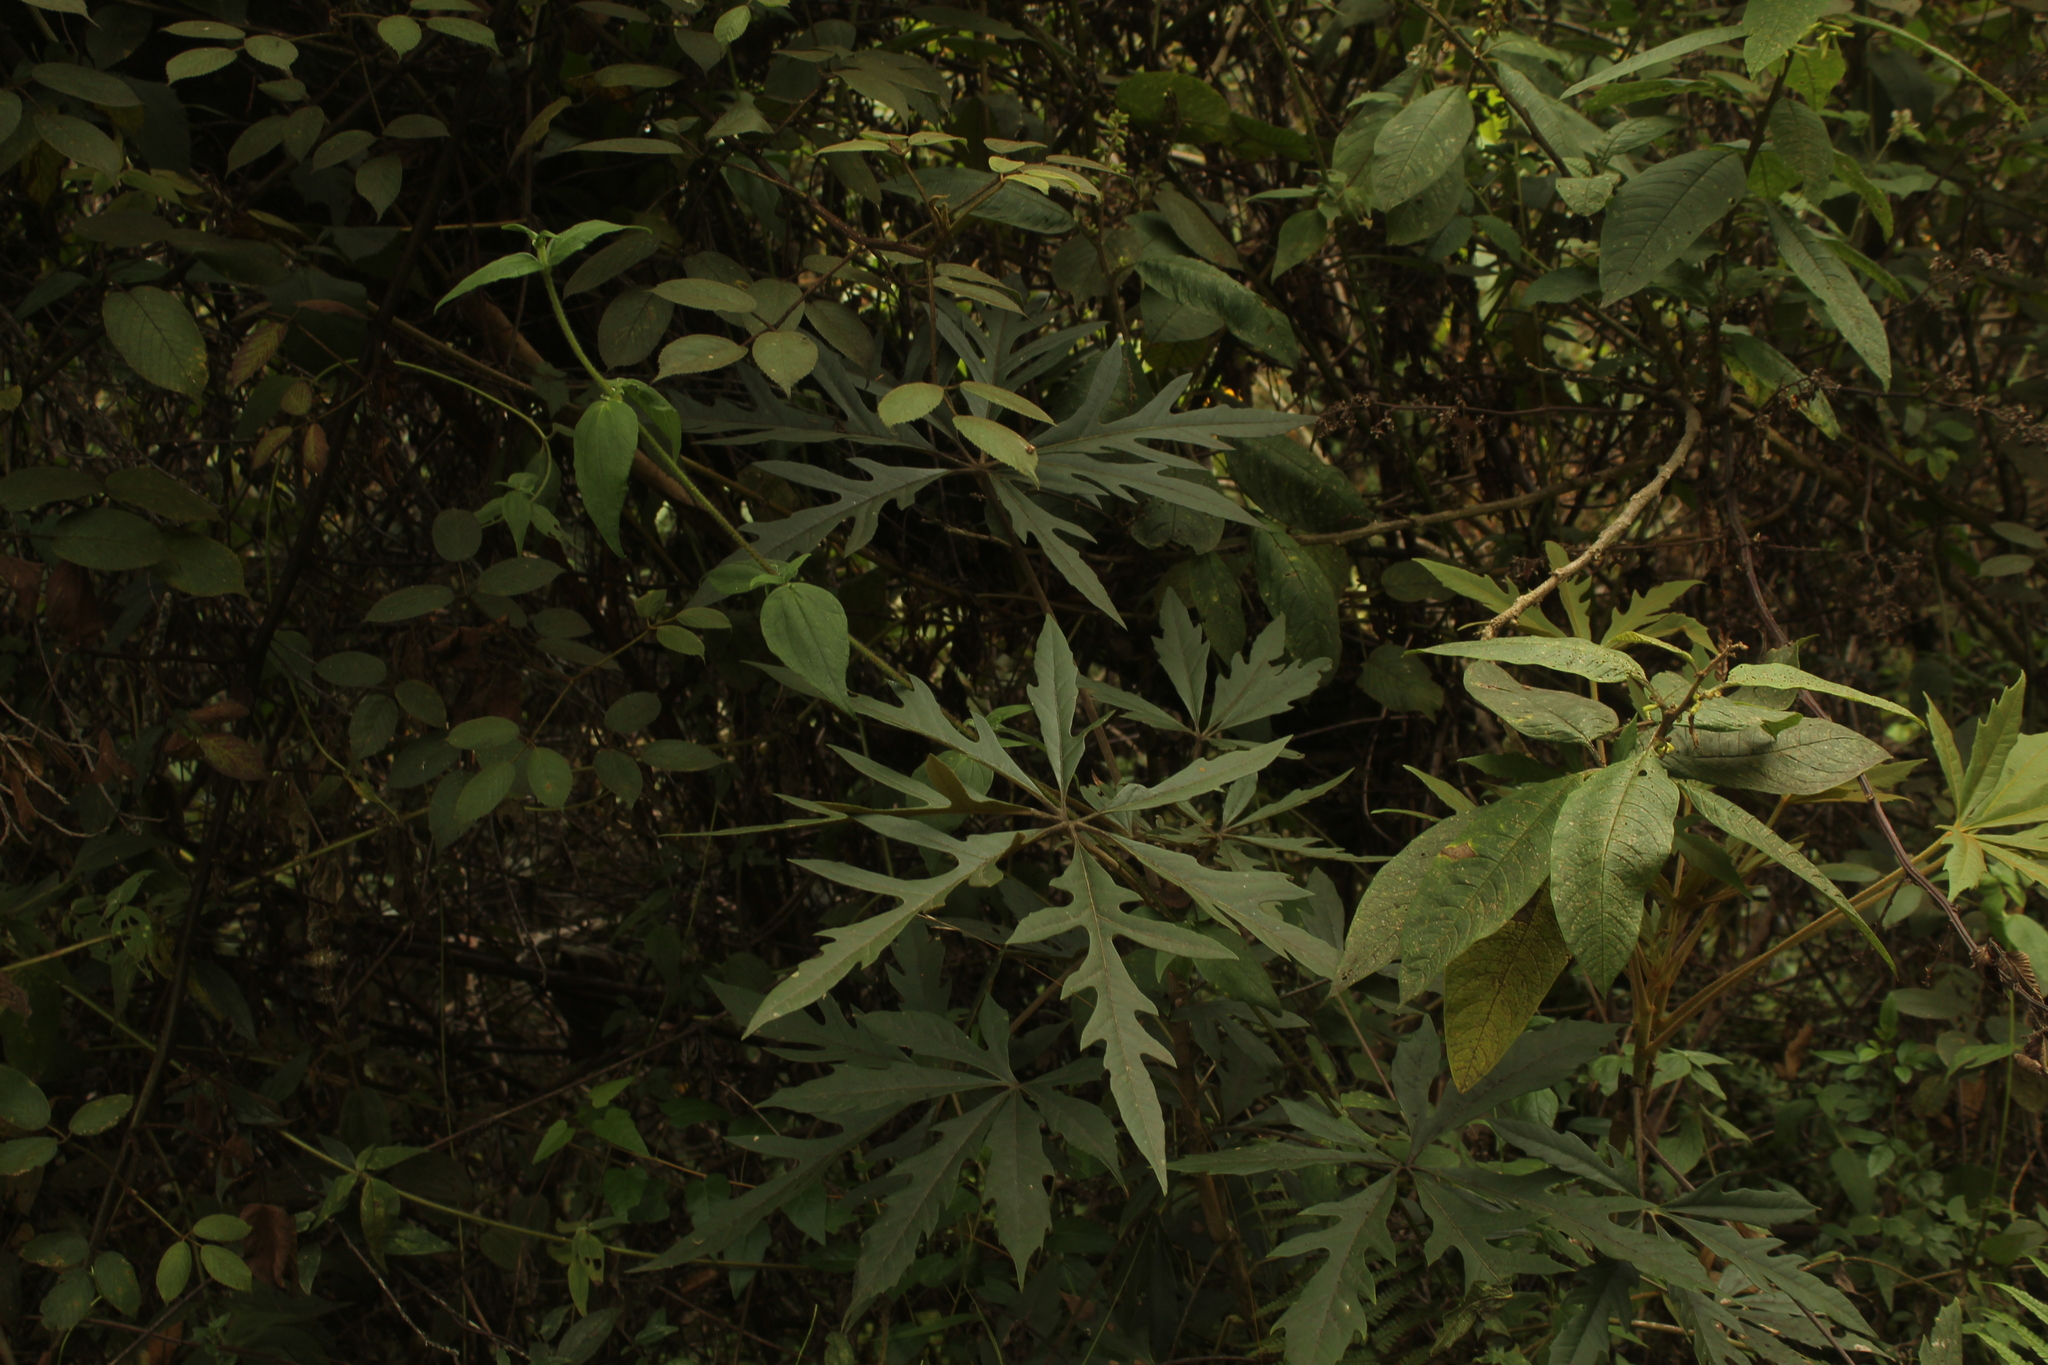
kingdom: Plantae
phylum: Tracheophyta
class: Magnoliopsida
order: Apiales
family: Araliaceae
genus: Oreopanax
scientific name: Oreopanax incisus
